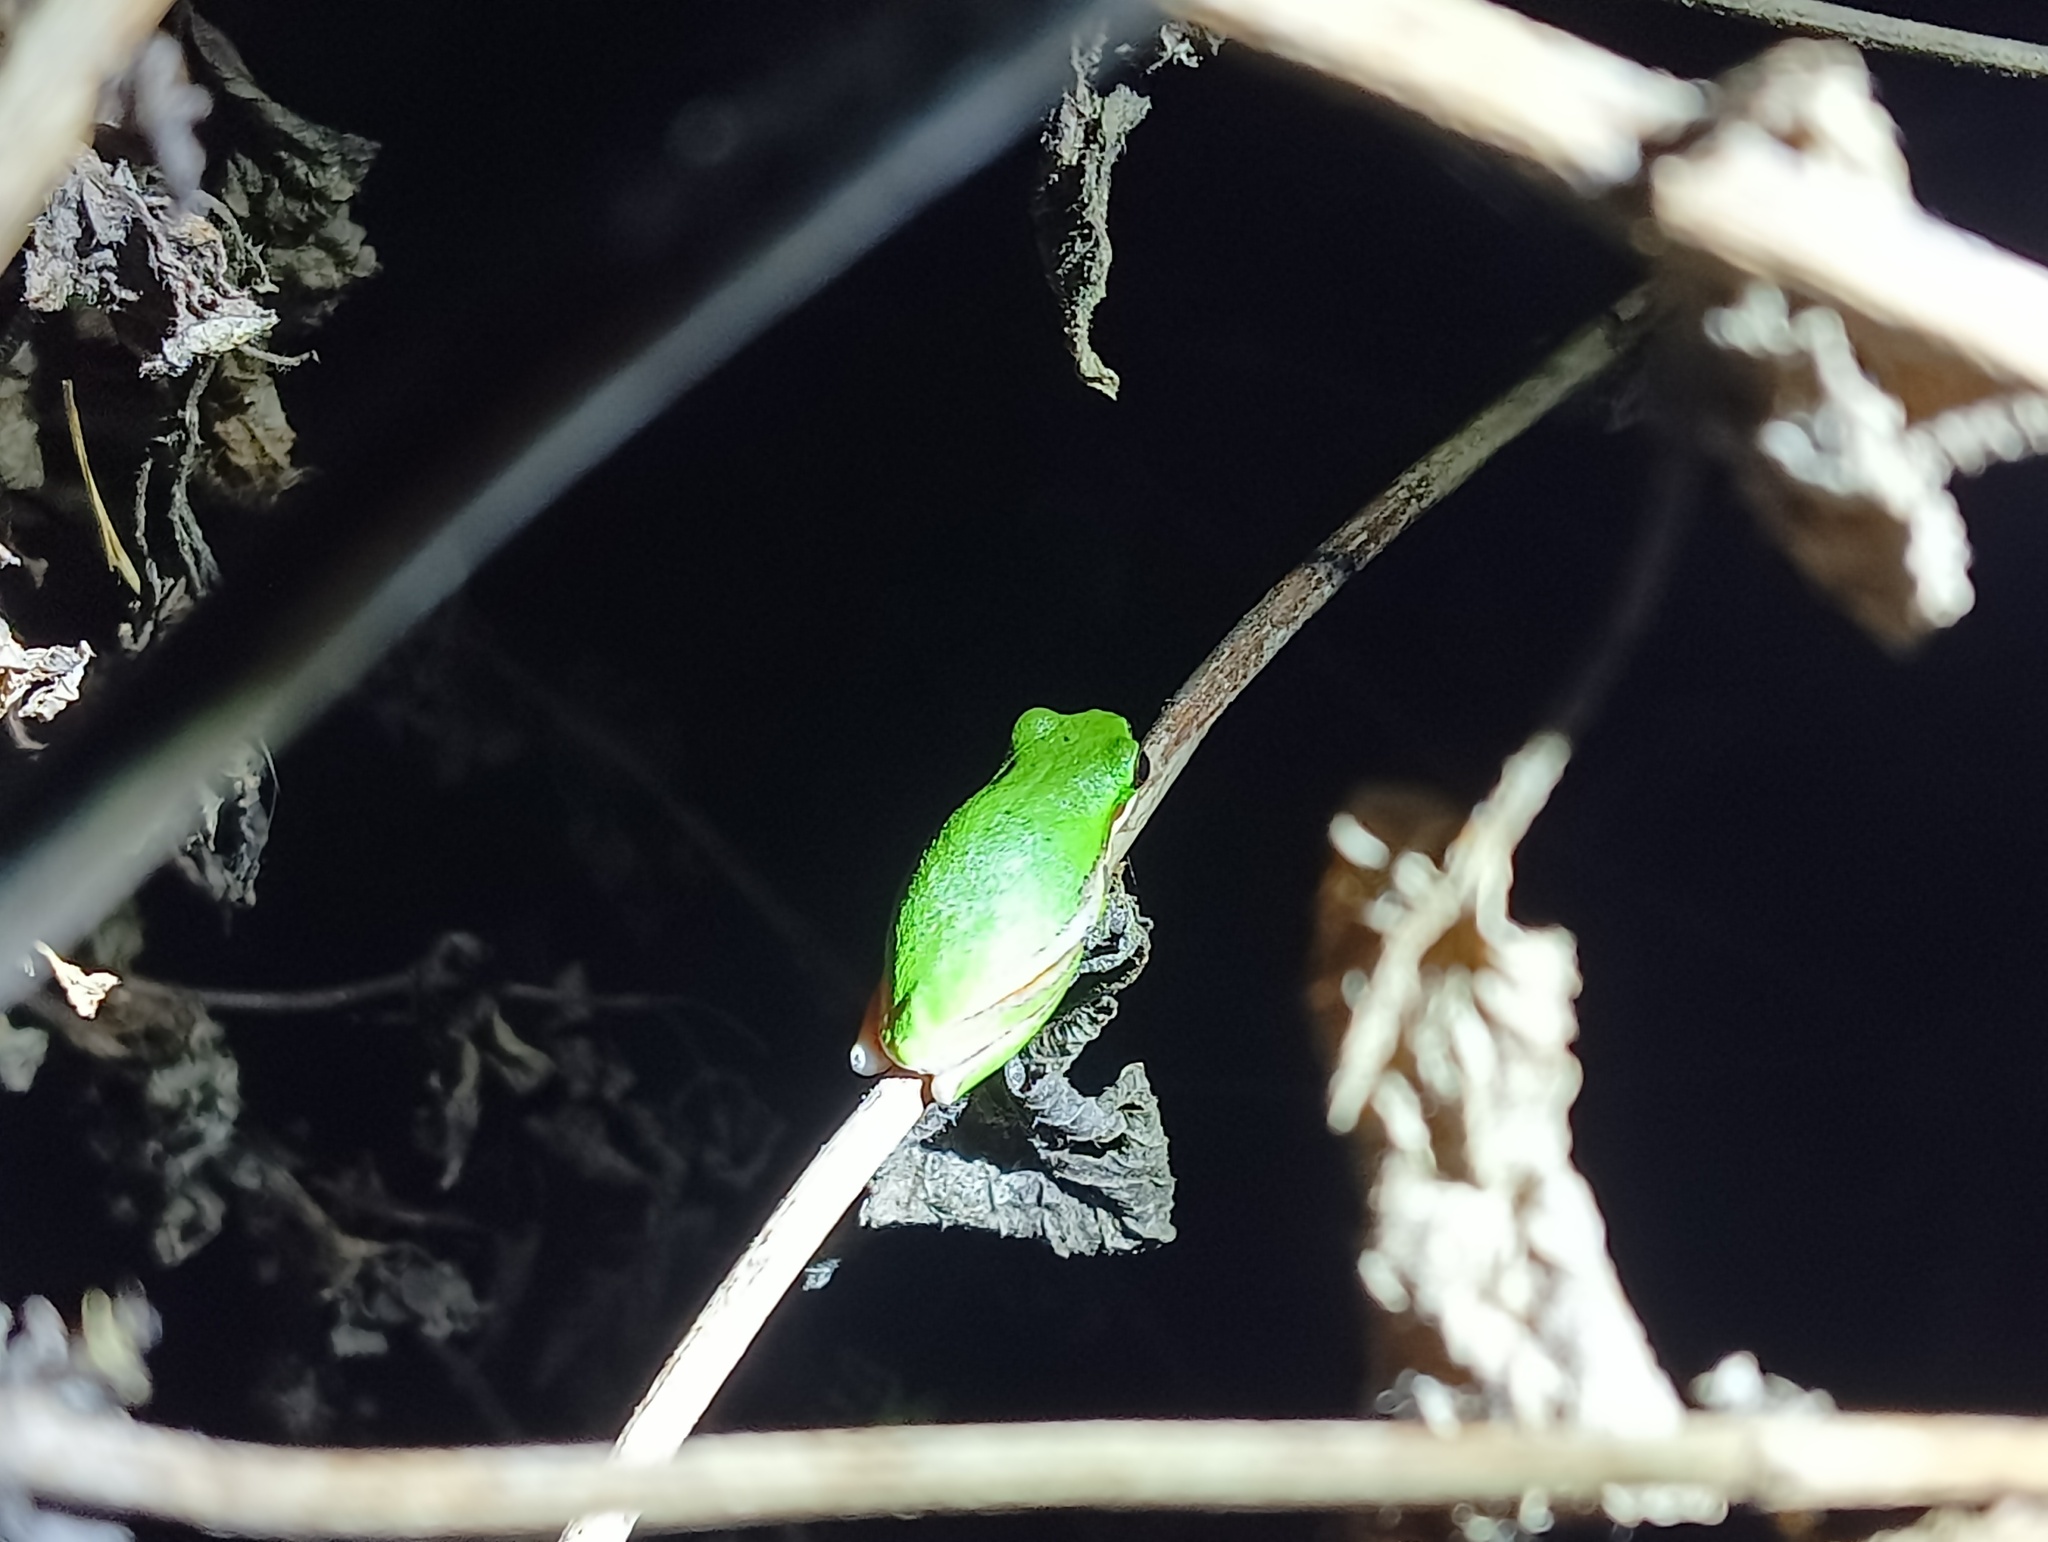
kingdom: Animalia
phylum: Chordata
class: Amphibia
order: Anura
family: Pelodryadidae
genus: Litoria
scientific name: Litoria fallax
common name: Eastern dwarf treefrog
